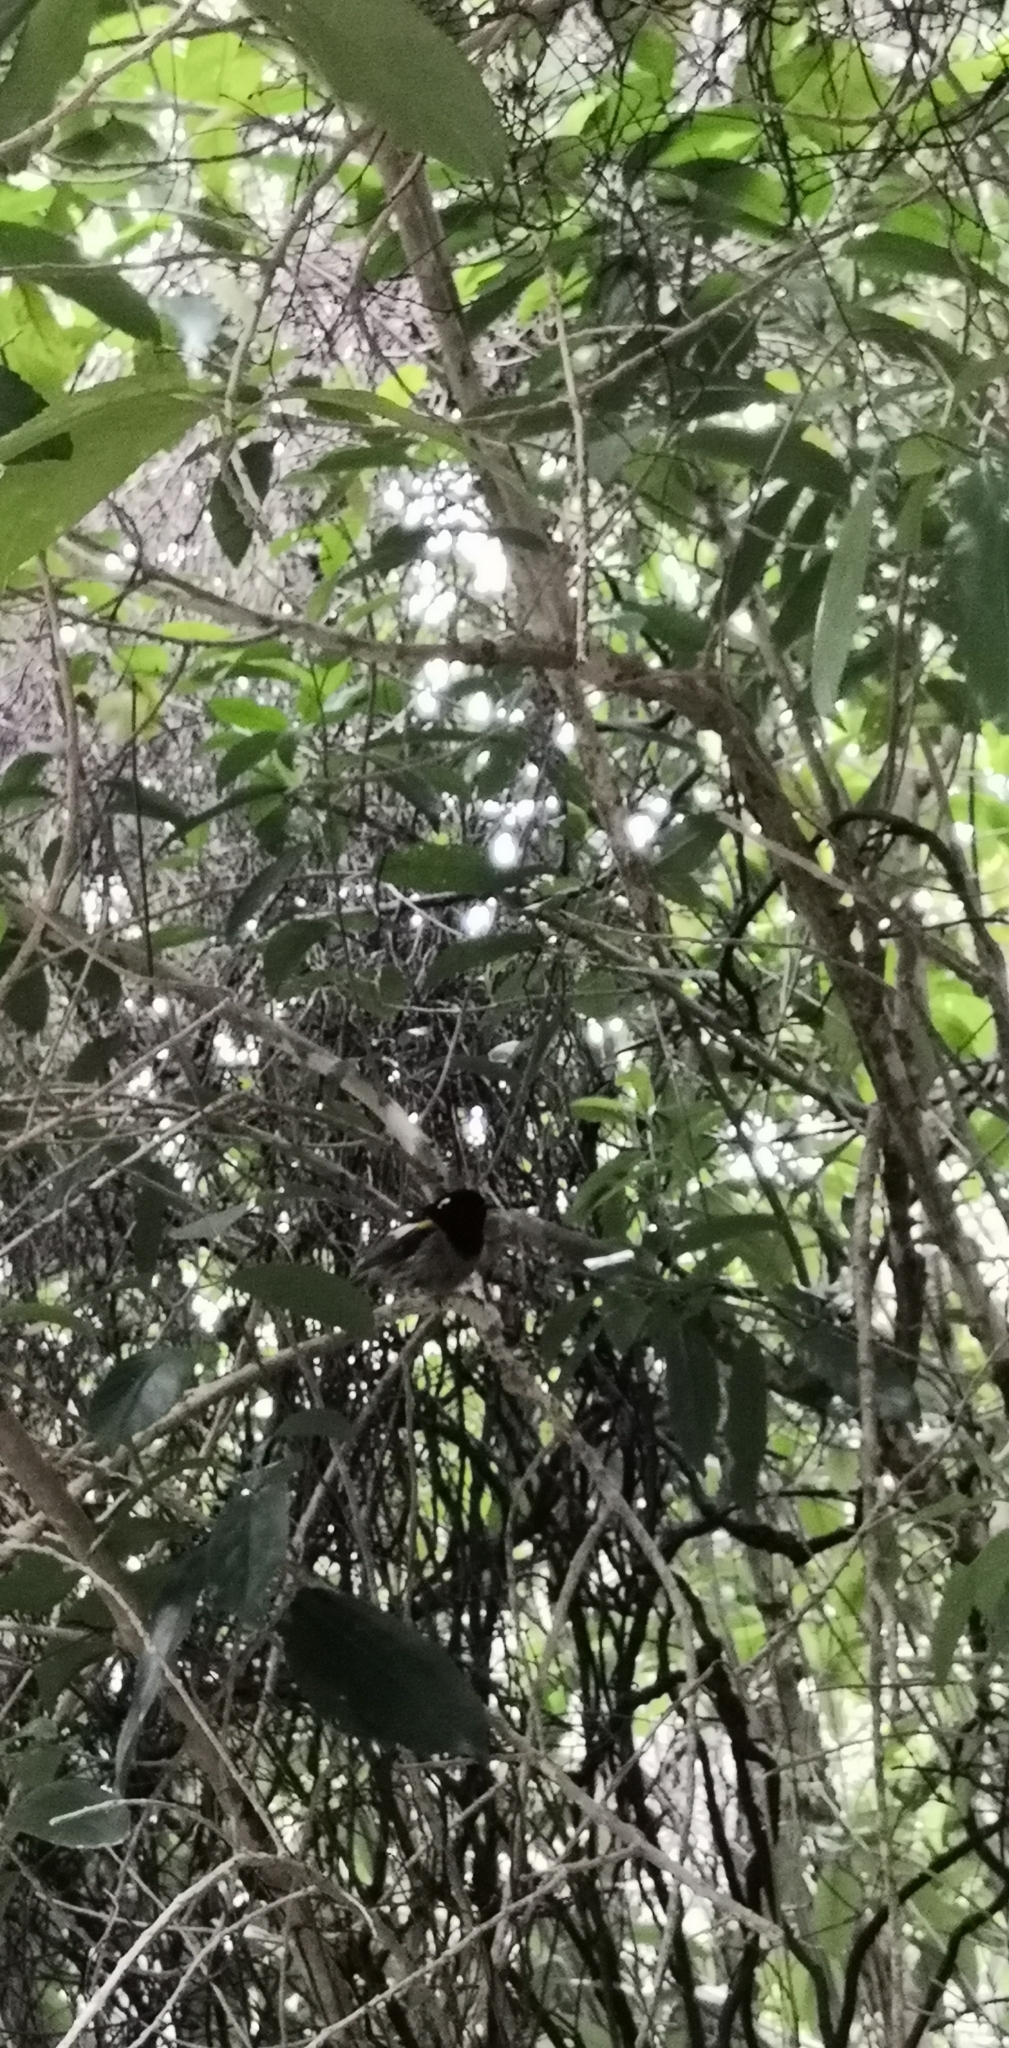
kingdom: Animalia
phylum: Chordata
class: Aves
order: Passeriformes
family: Notiomystidae
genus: Notiomystis
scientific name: Notiomystis cincta
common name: Stitchbird
